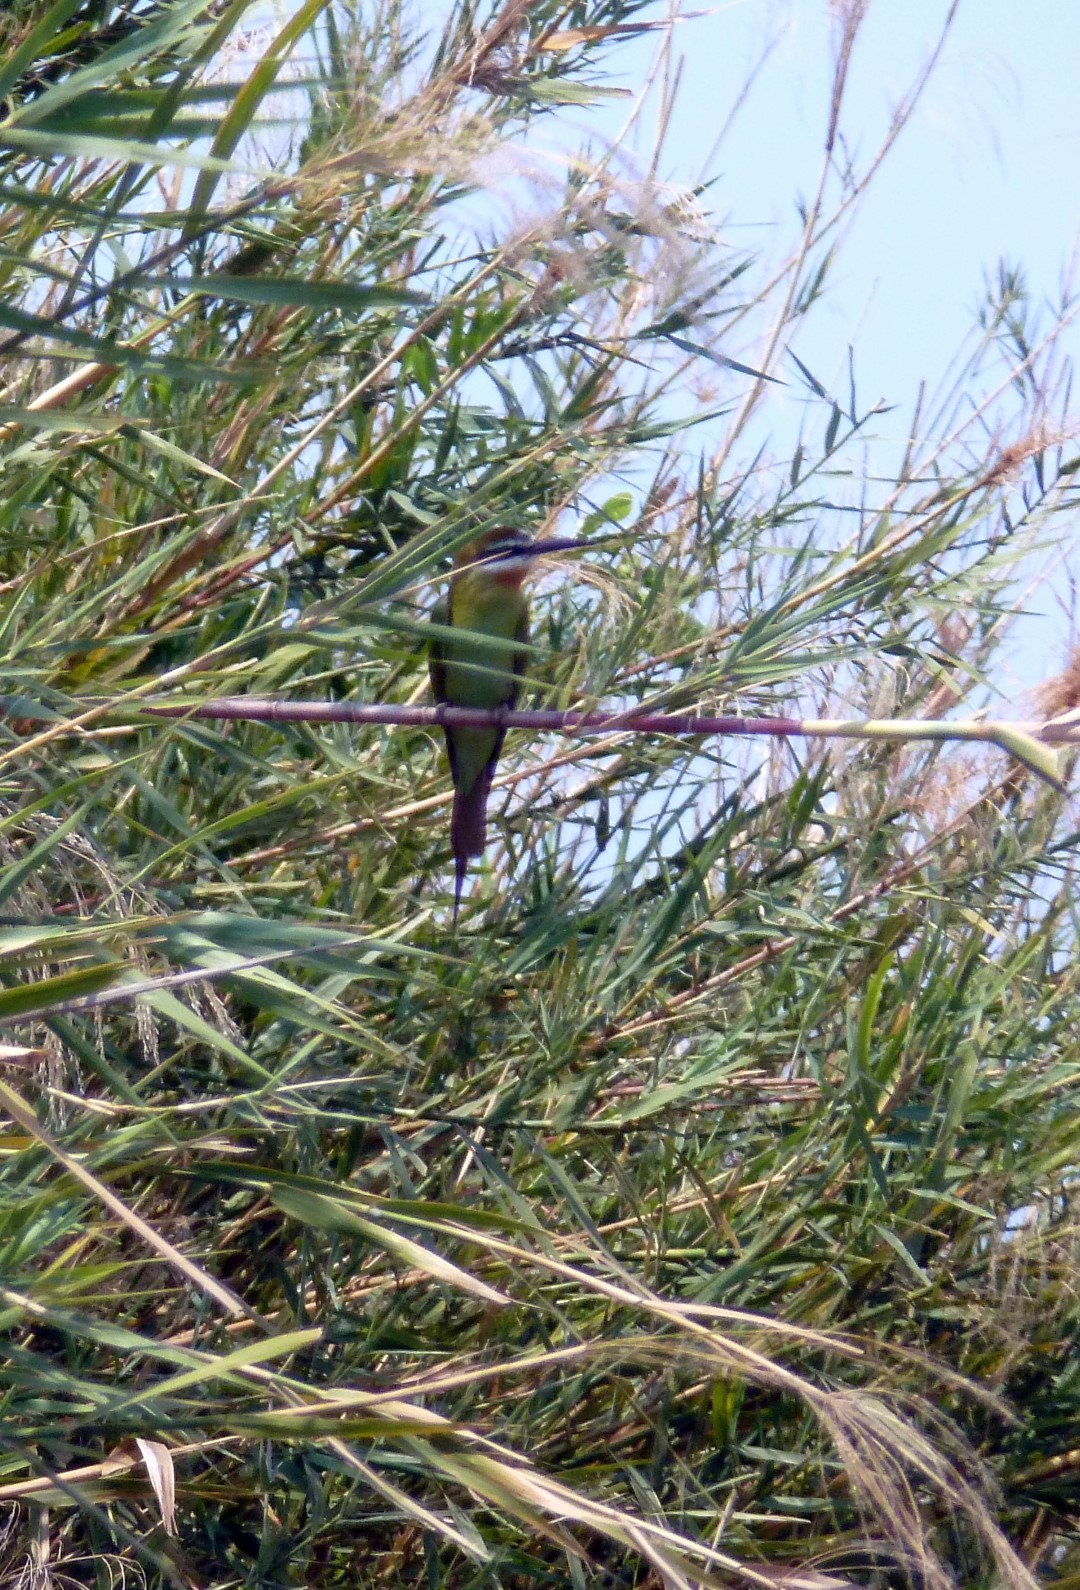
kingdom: Animalia
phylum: Chordata
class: Aves
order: Coraciiformes
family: Meropidae
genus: Merops
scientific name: Merops superciliosus
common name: Olive bee-eater
